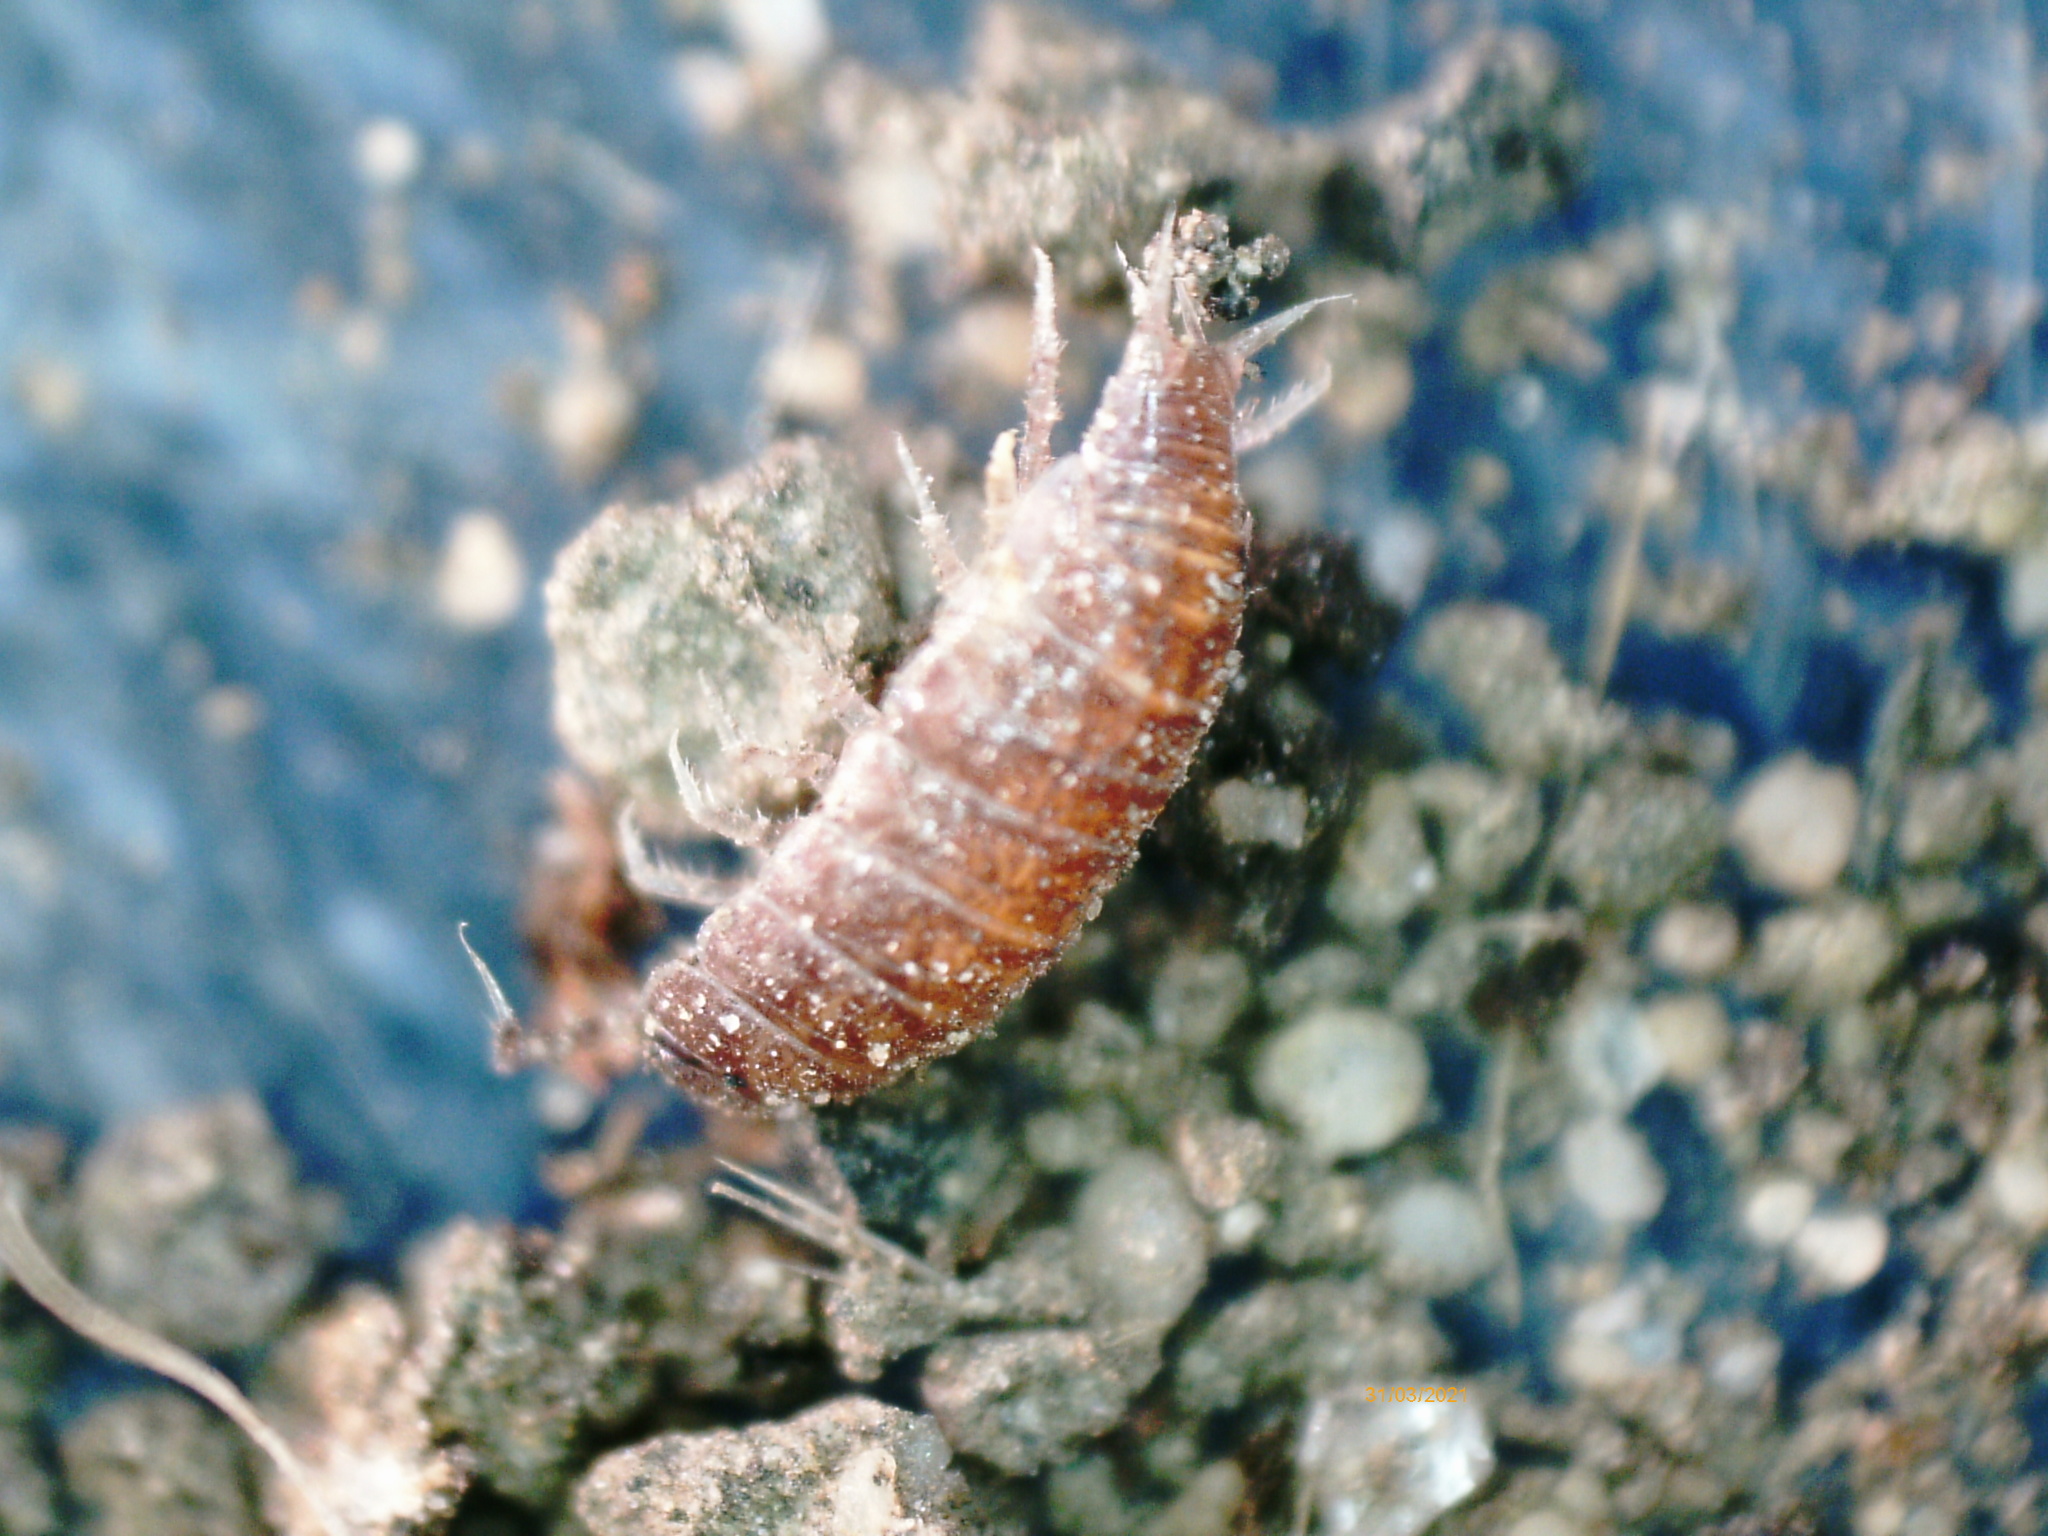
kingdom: Animalia
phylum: Arthropoda
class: Malacostraca
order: Isopoda
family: Trichoniscidae
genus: Trichoniscus
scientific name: Trichoniscus pusillus
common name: Common pygmy woodlouse
